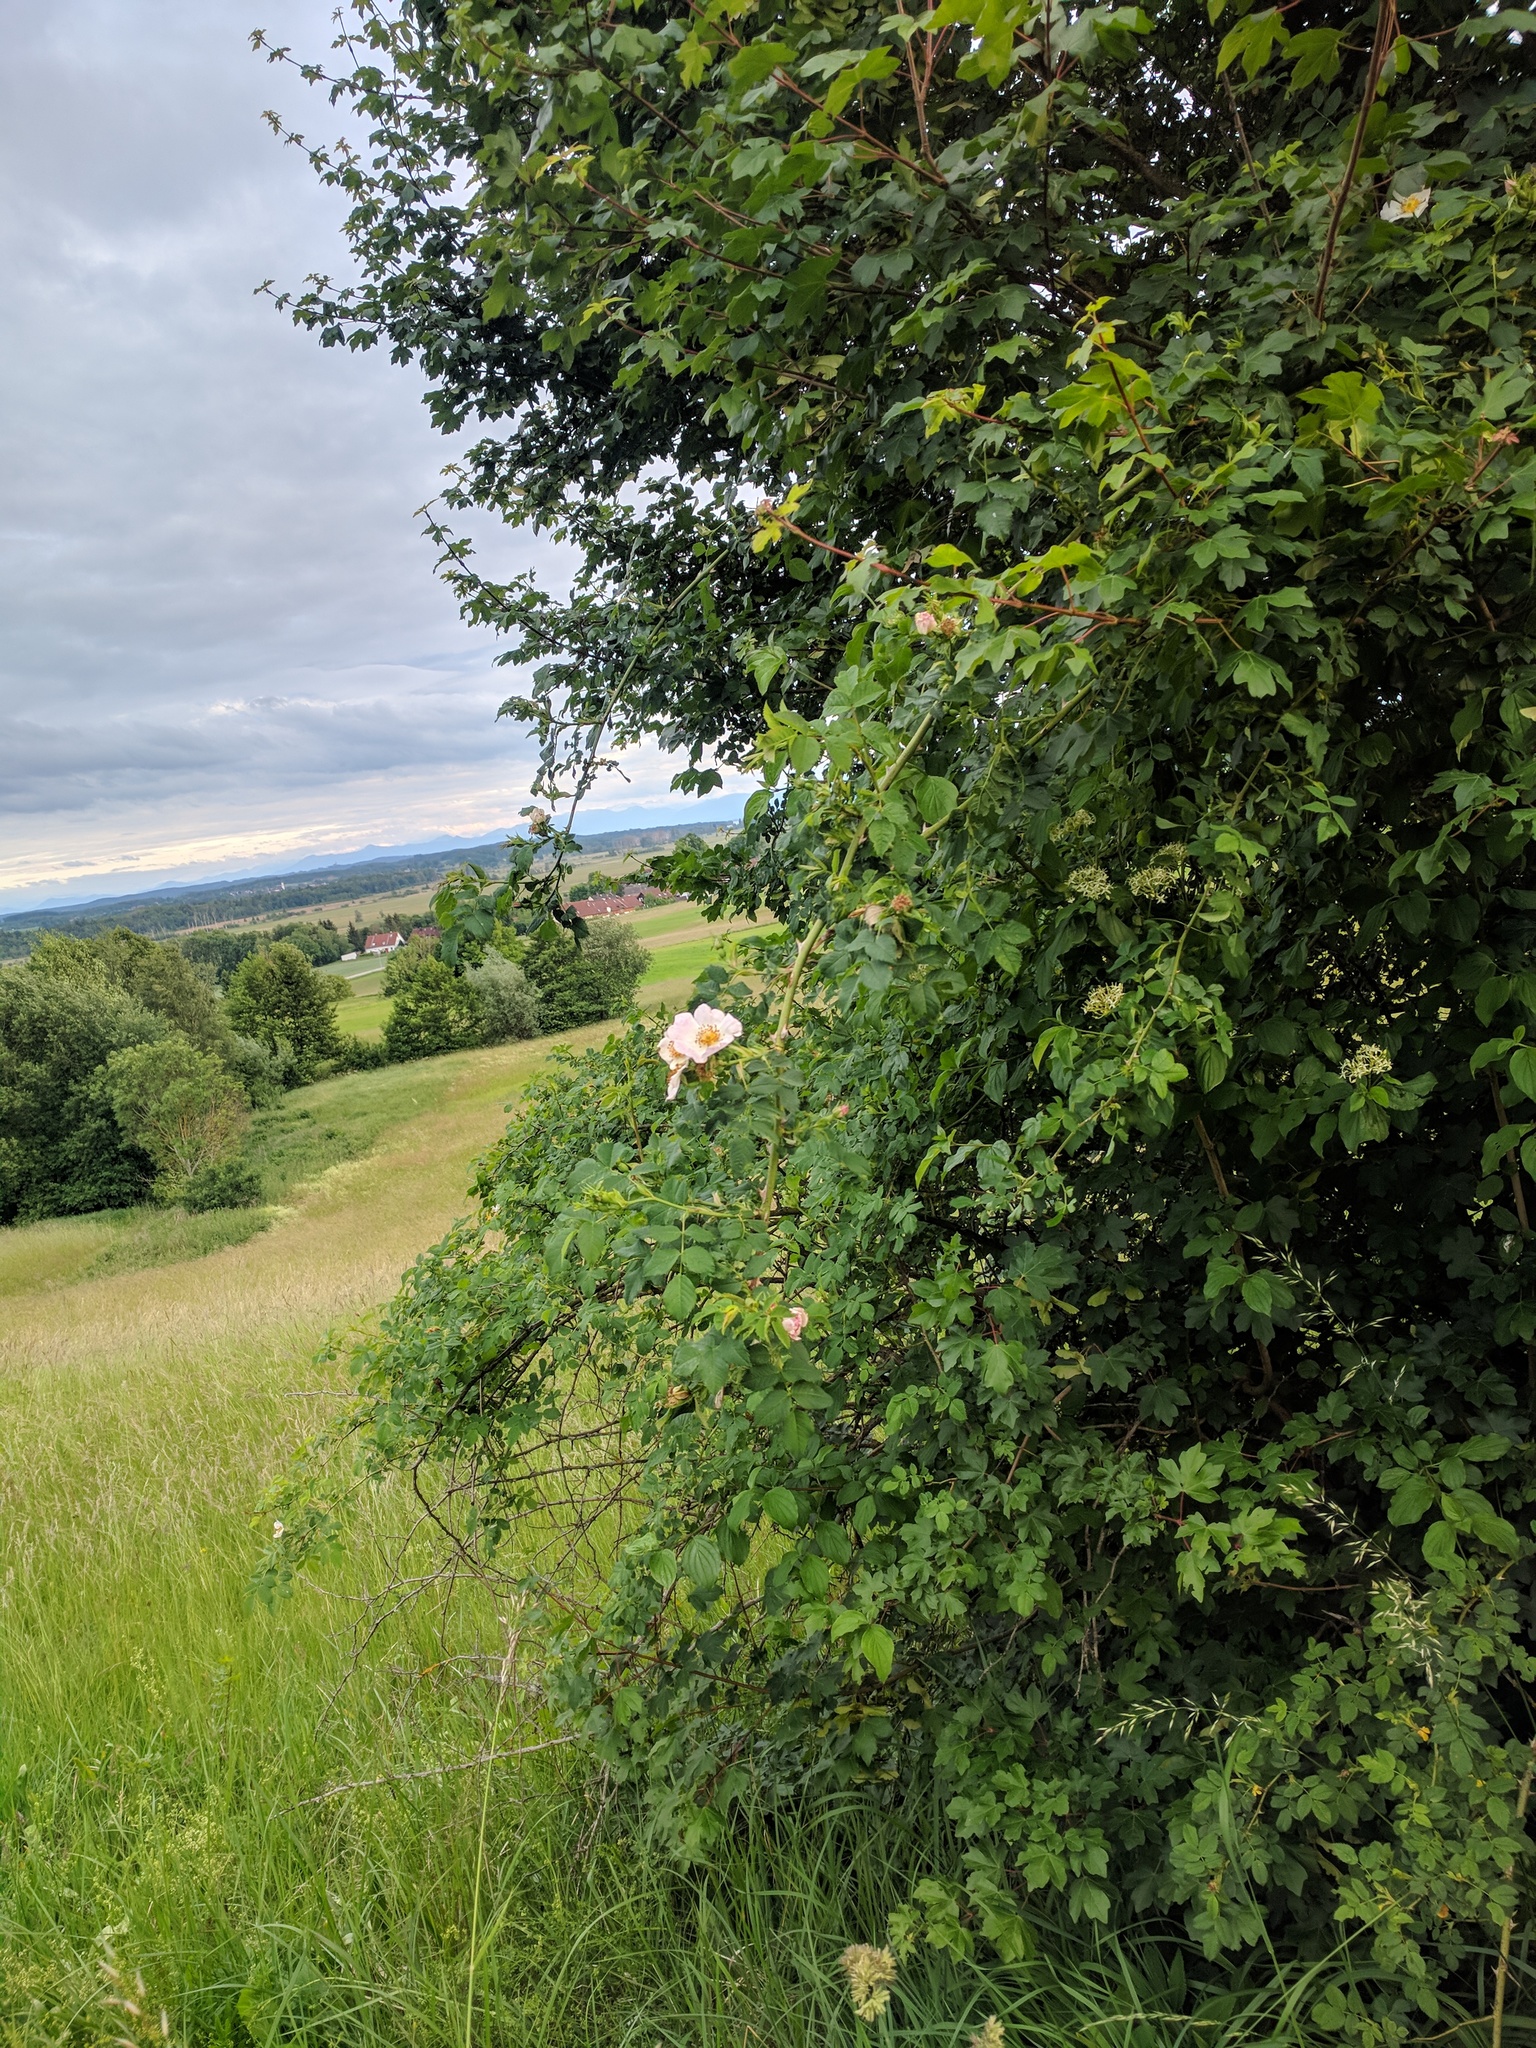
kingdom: Plantae
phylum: Tracheophyta
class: Magnoliopsida
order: Rosales
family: Rosaceae
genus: Rosa
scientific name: Rosa canina
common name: Dog rose
